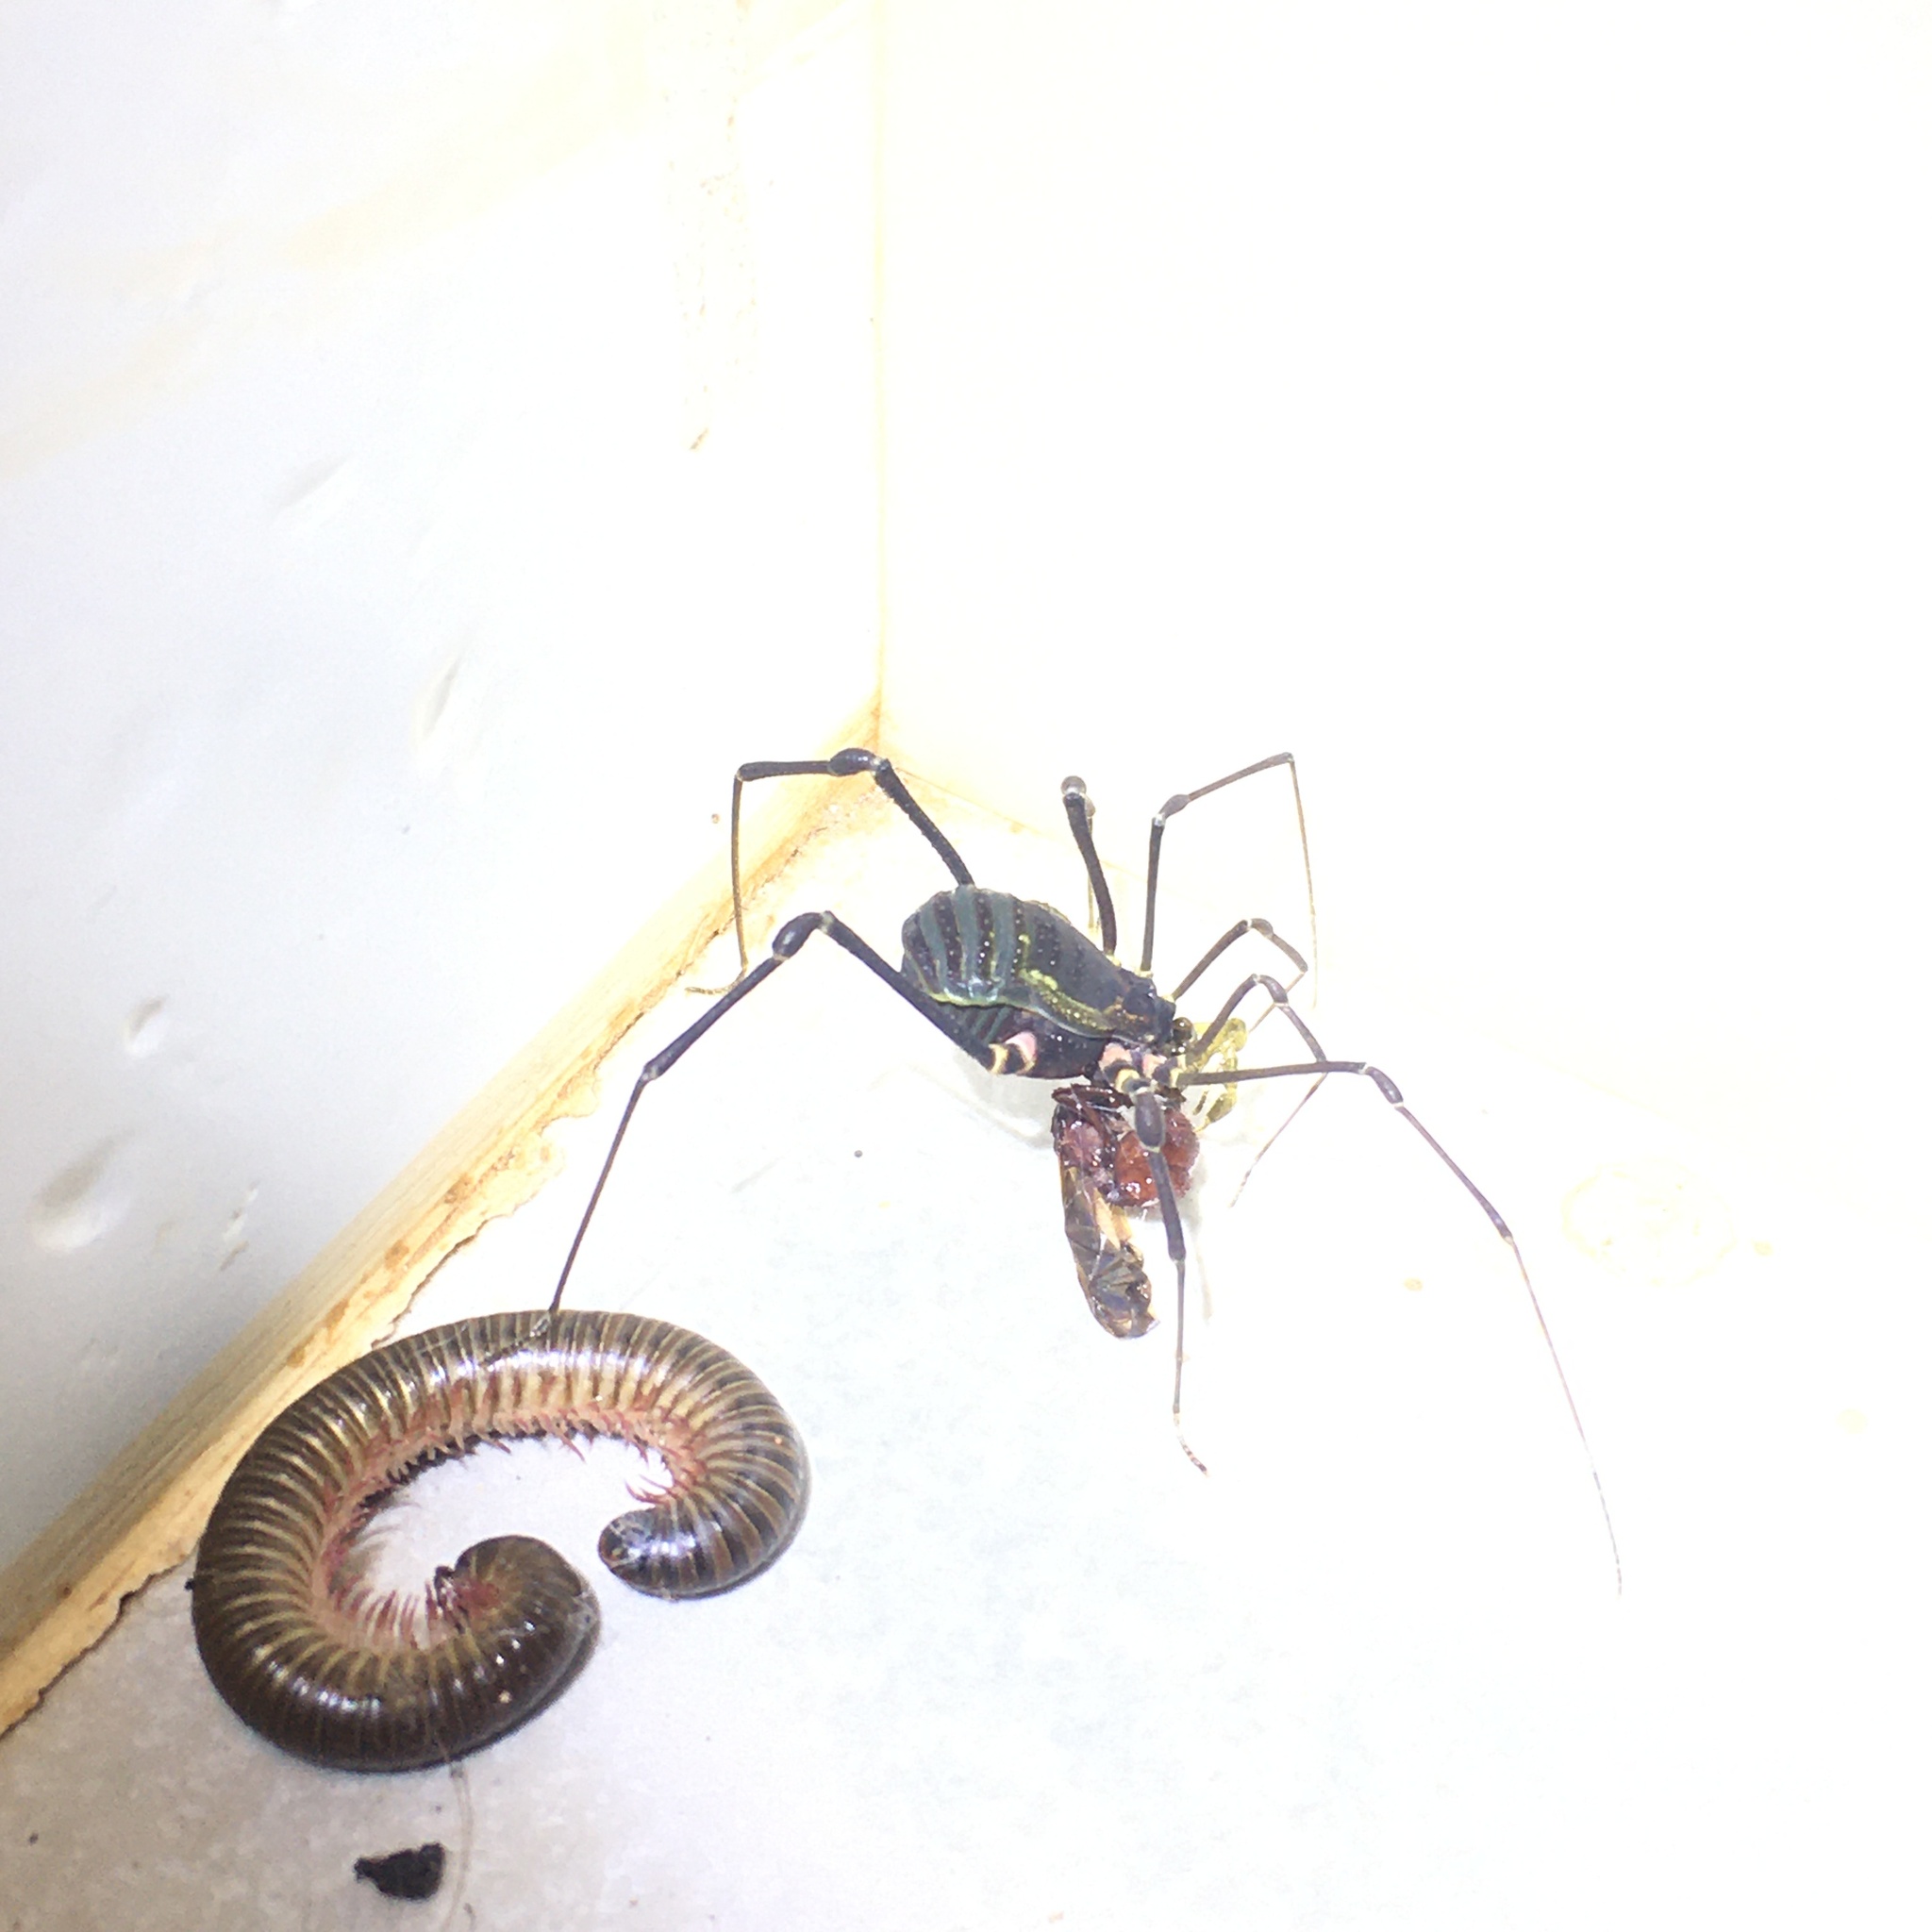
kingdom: Animalia
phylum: Arthropoda
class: Arachnida
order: Opiliones
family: Gonyleptidae
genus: Geraeocormobius
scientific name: Geraeocormobius sylvarum
